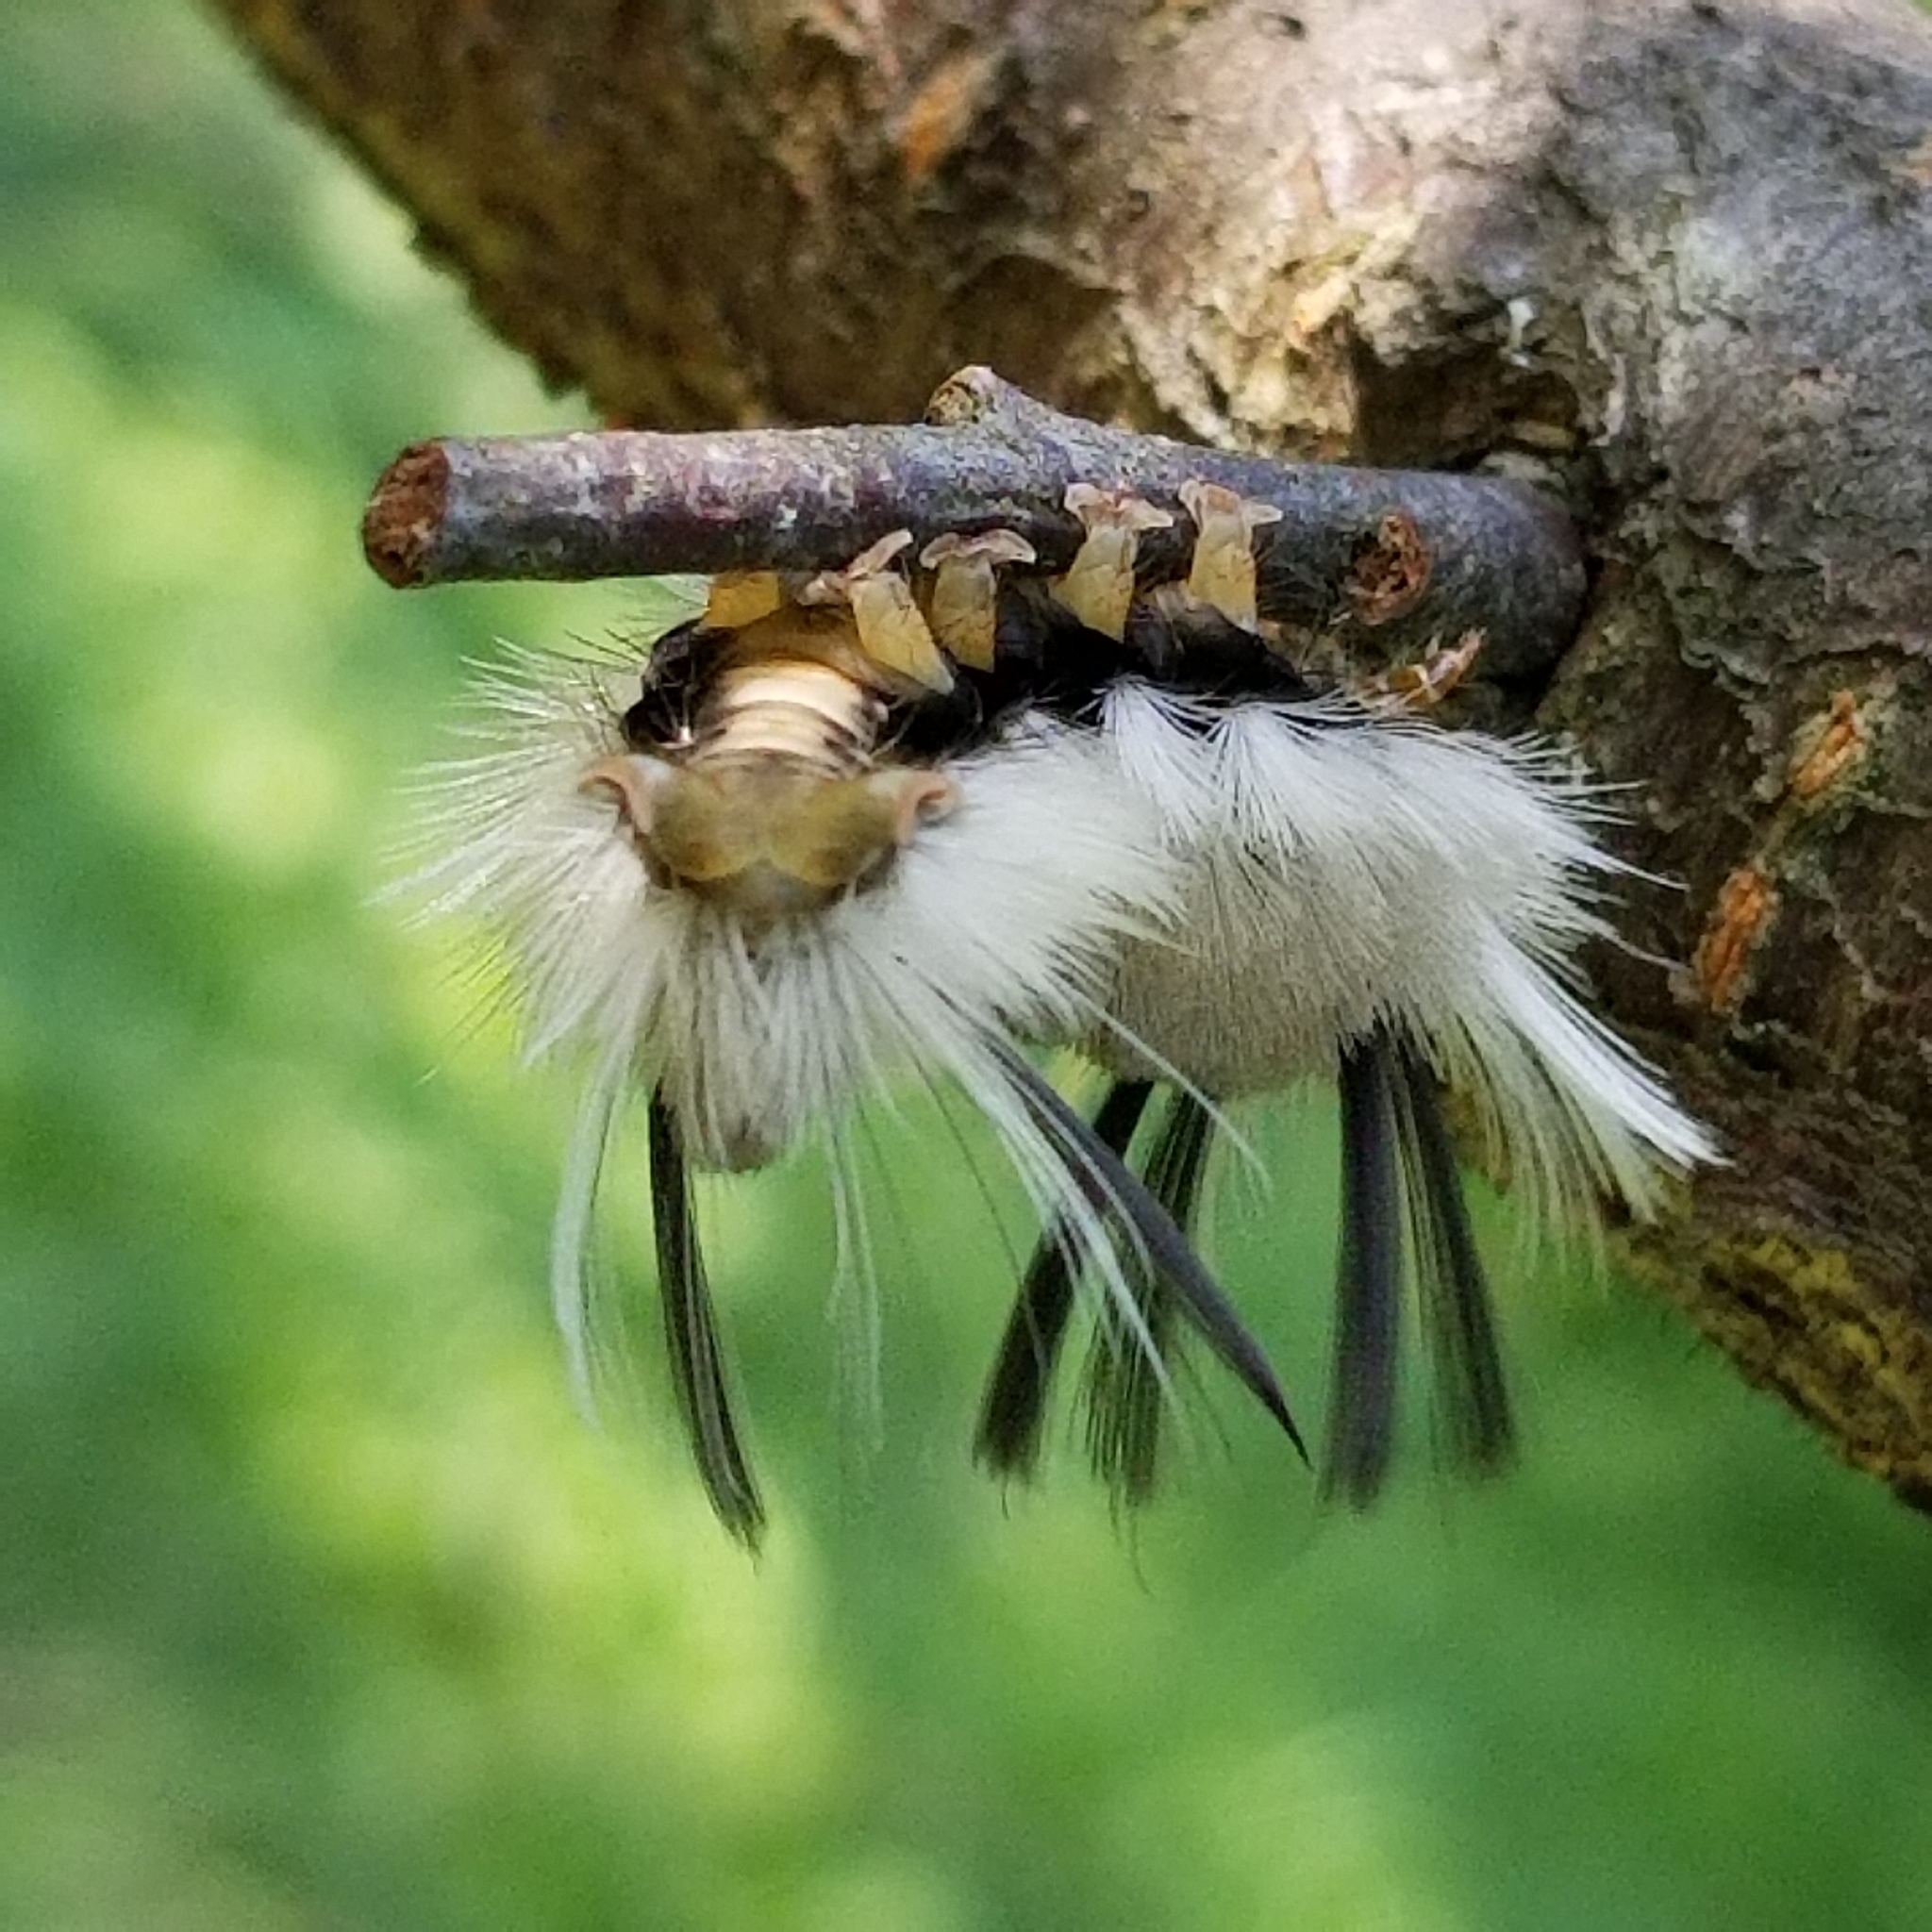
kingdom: Animalia
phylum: Arthropoda
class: Insecta
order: Lepidoptera
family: Erebidae
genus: Halysidota
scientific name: Halysidota tessellaris
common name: Banded tussock moth
